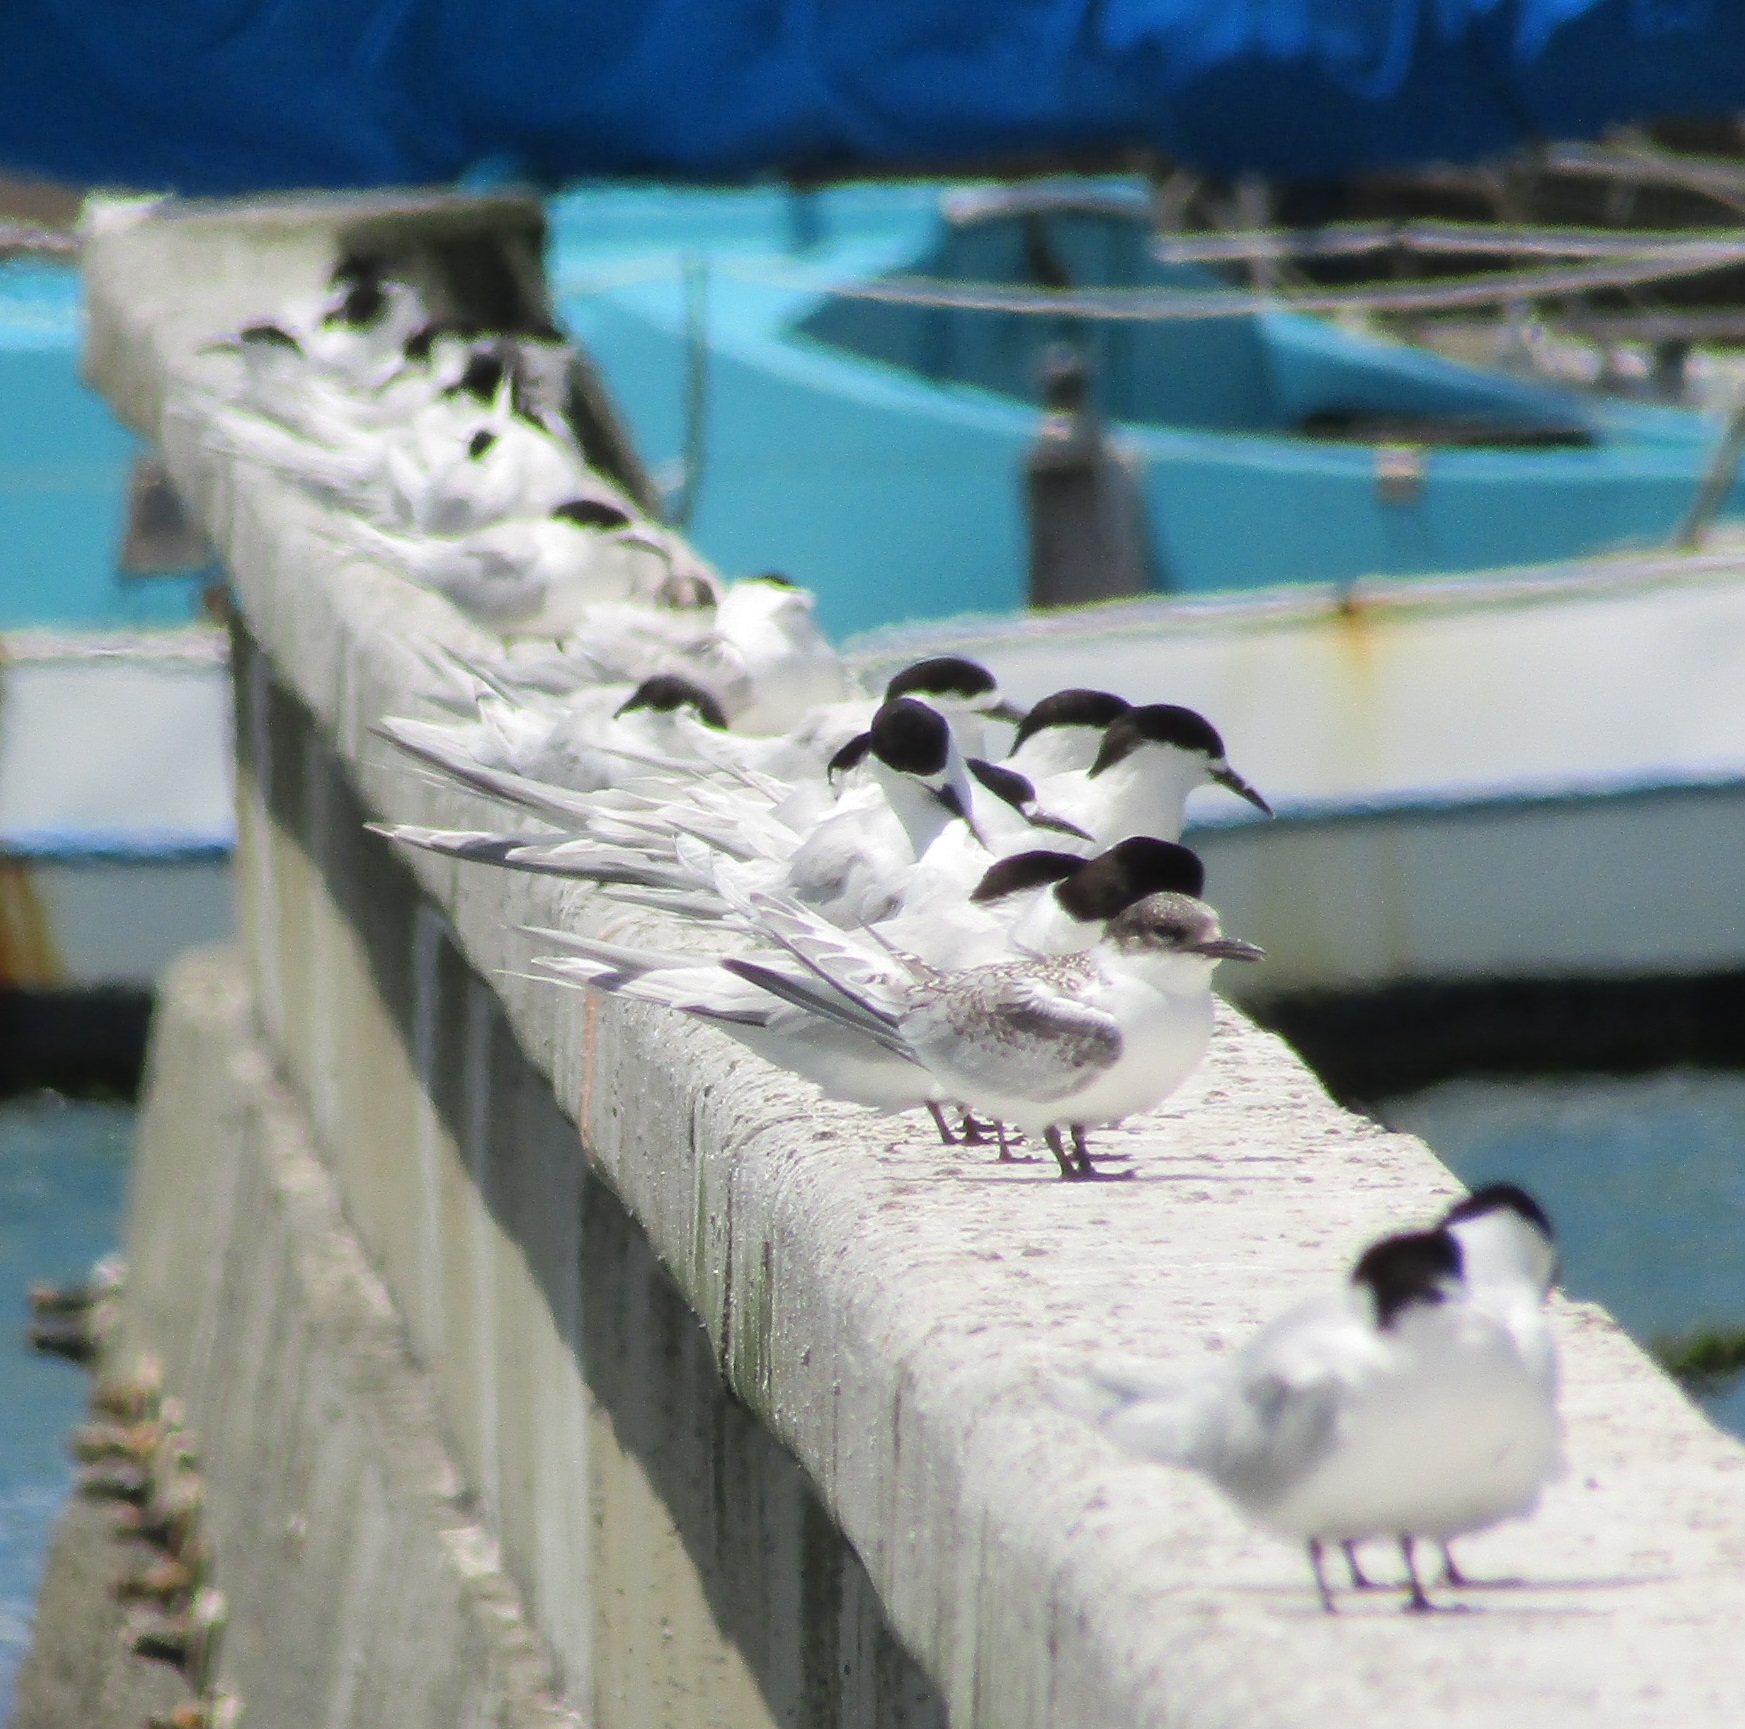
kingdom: Animalia
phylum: Chordata
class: Aves
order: Charadriiformes
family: Laridae
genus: Sterna
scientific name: Sterna striata
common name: White-fronted tern
